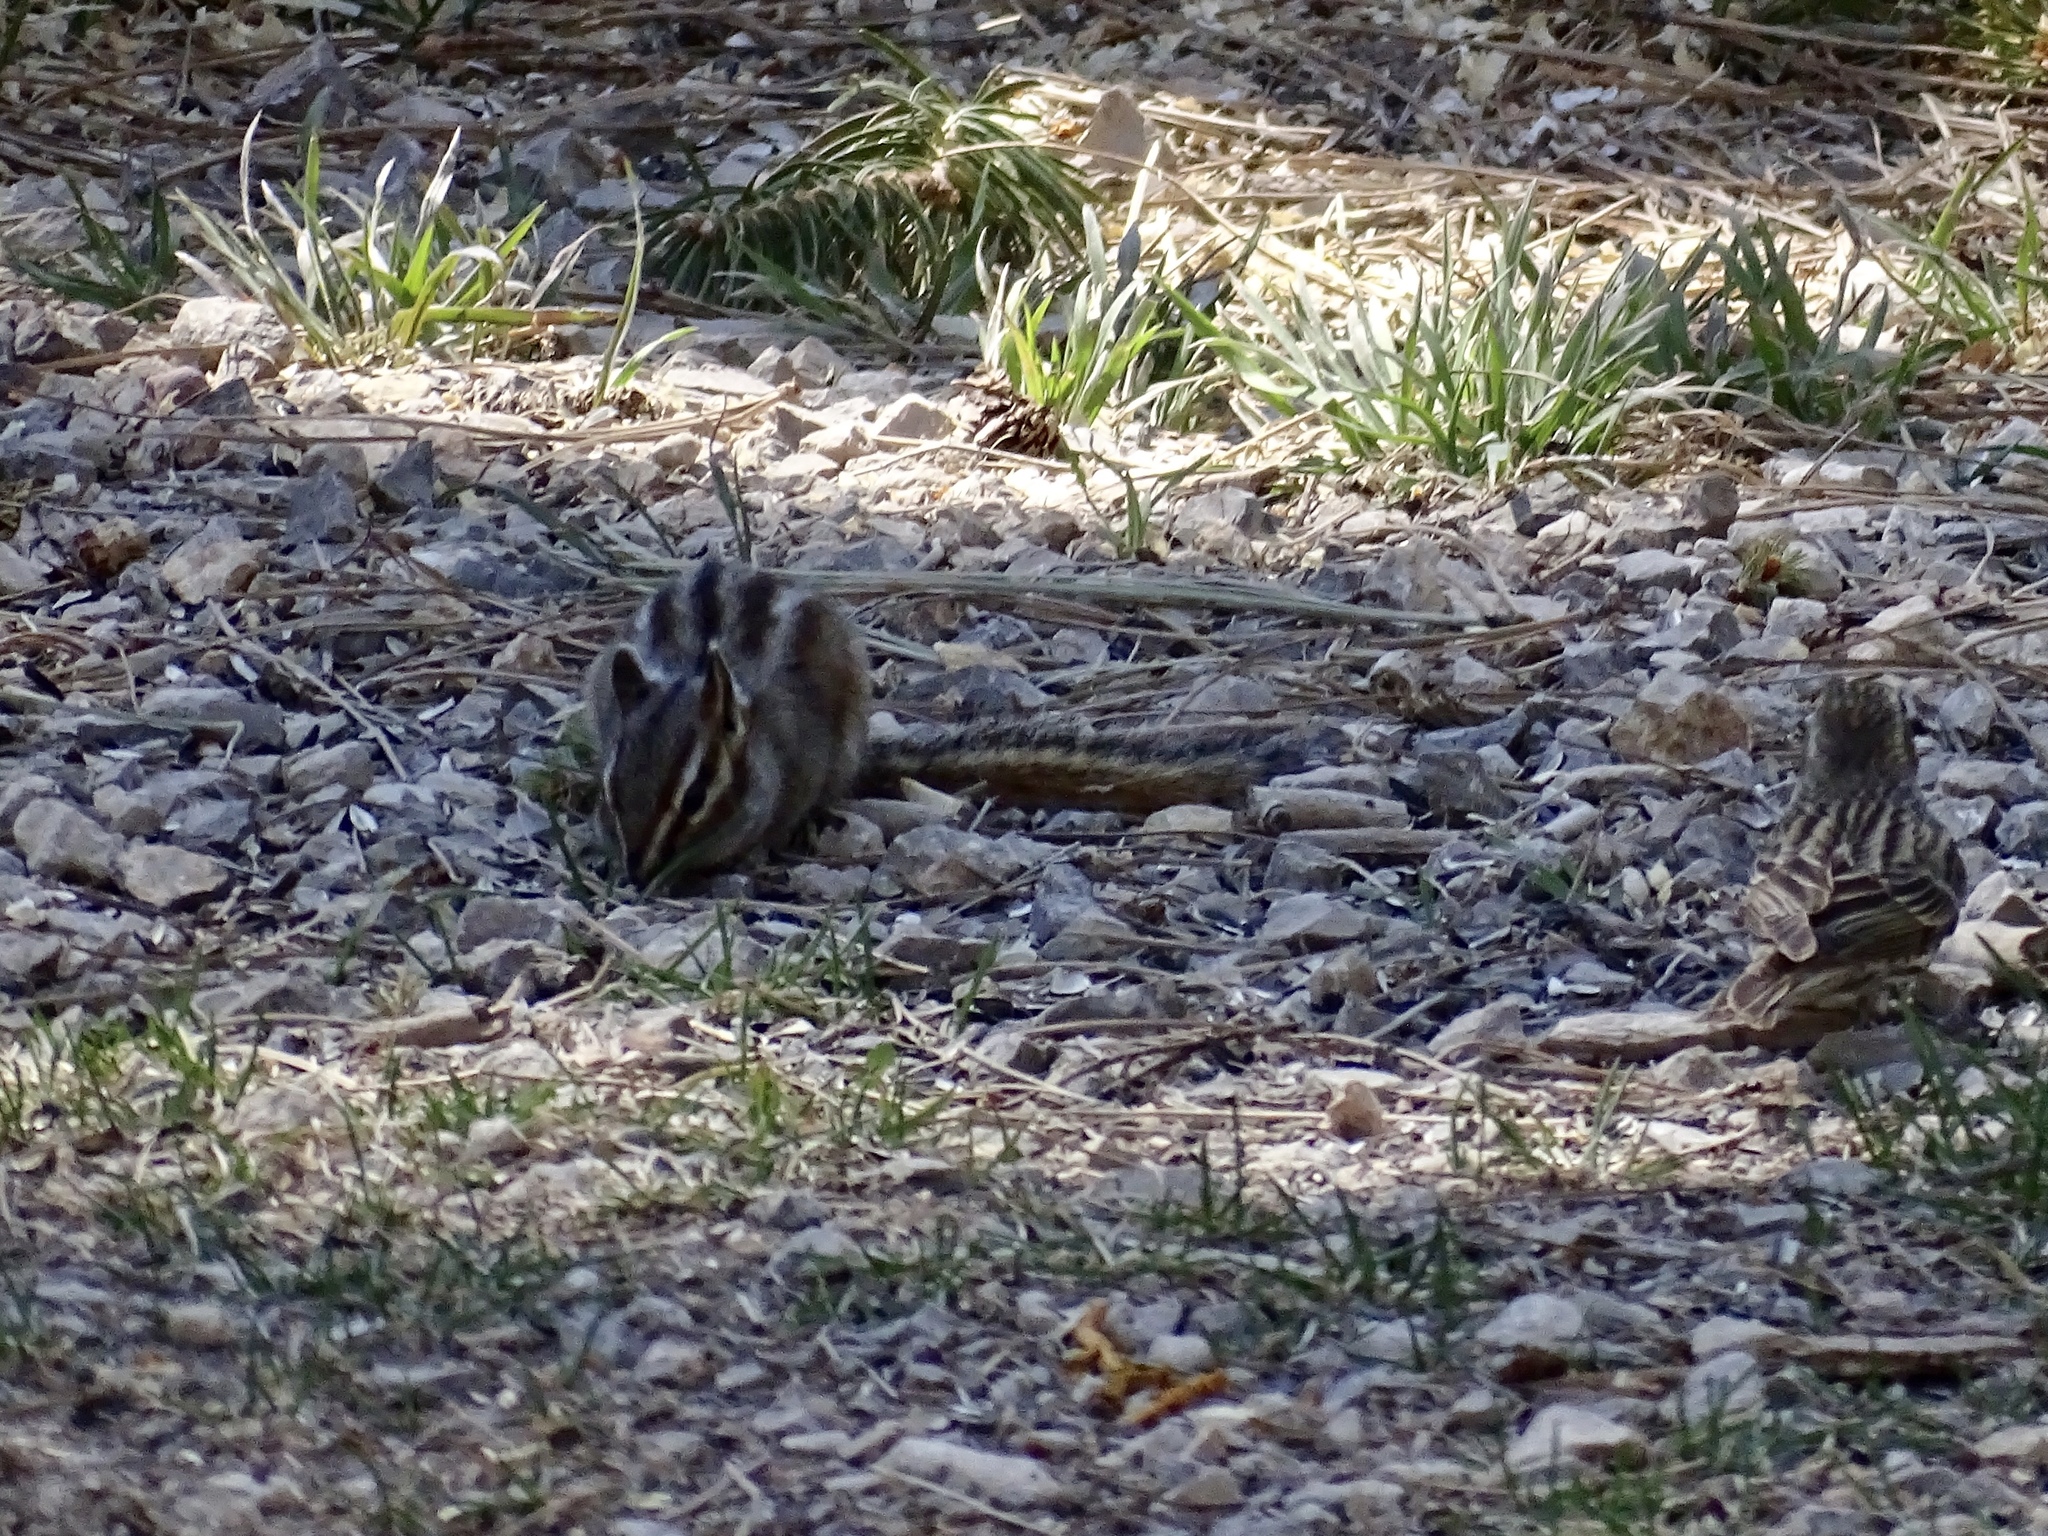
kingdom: Animalia
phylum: Chordata
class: Mammalia
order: Rodentia
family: Sciuridae
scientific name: Sciuridae
